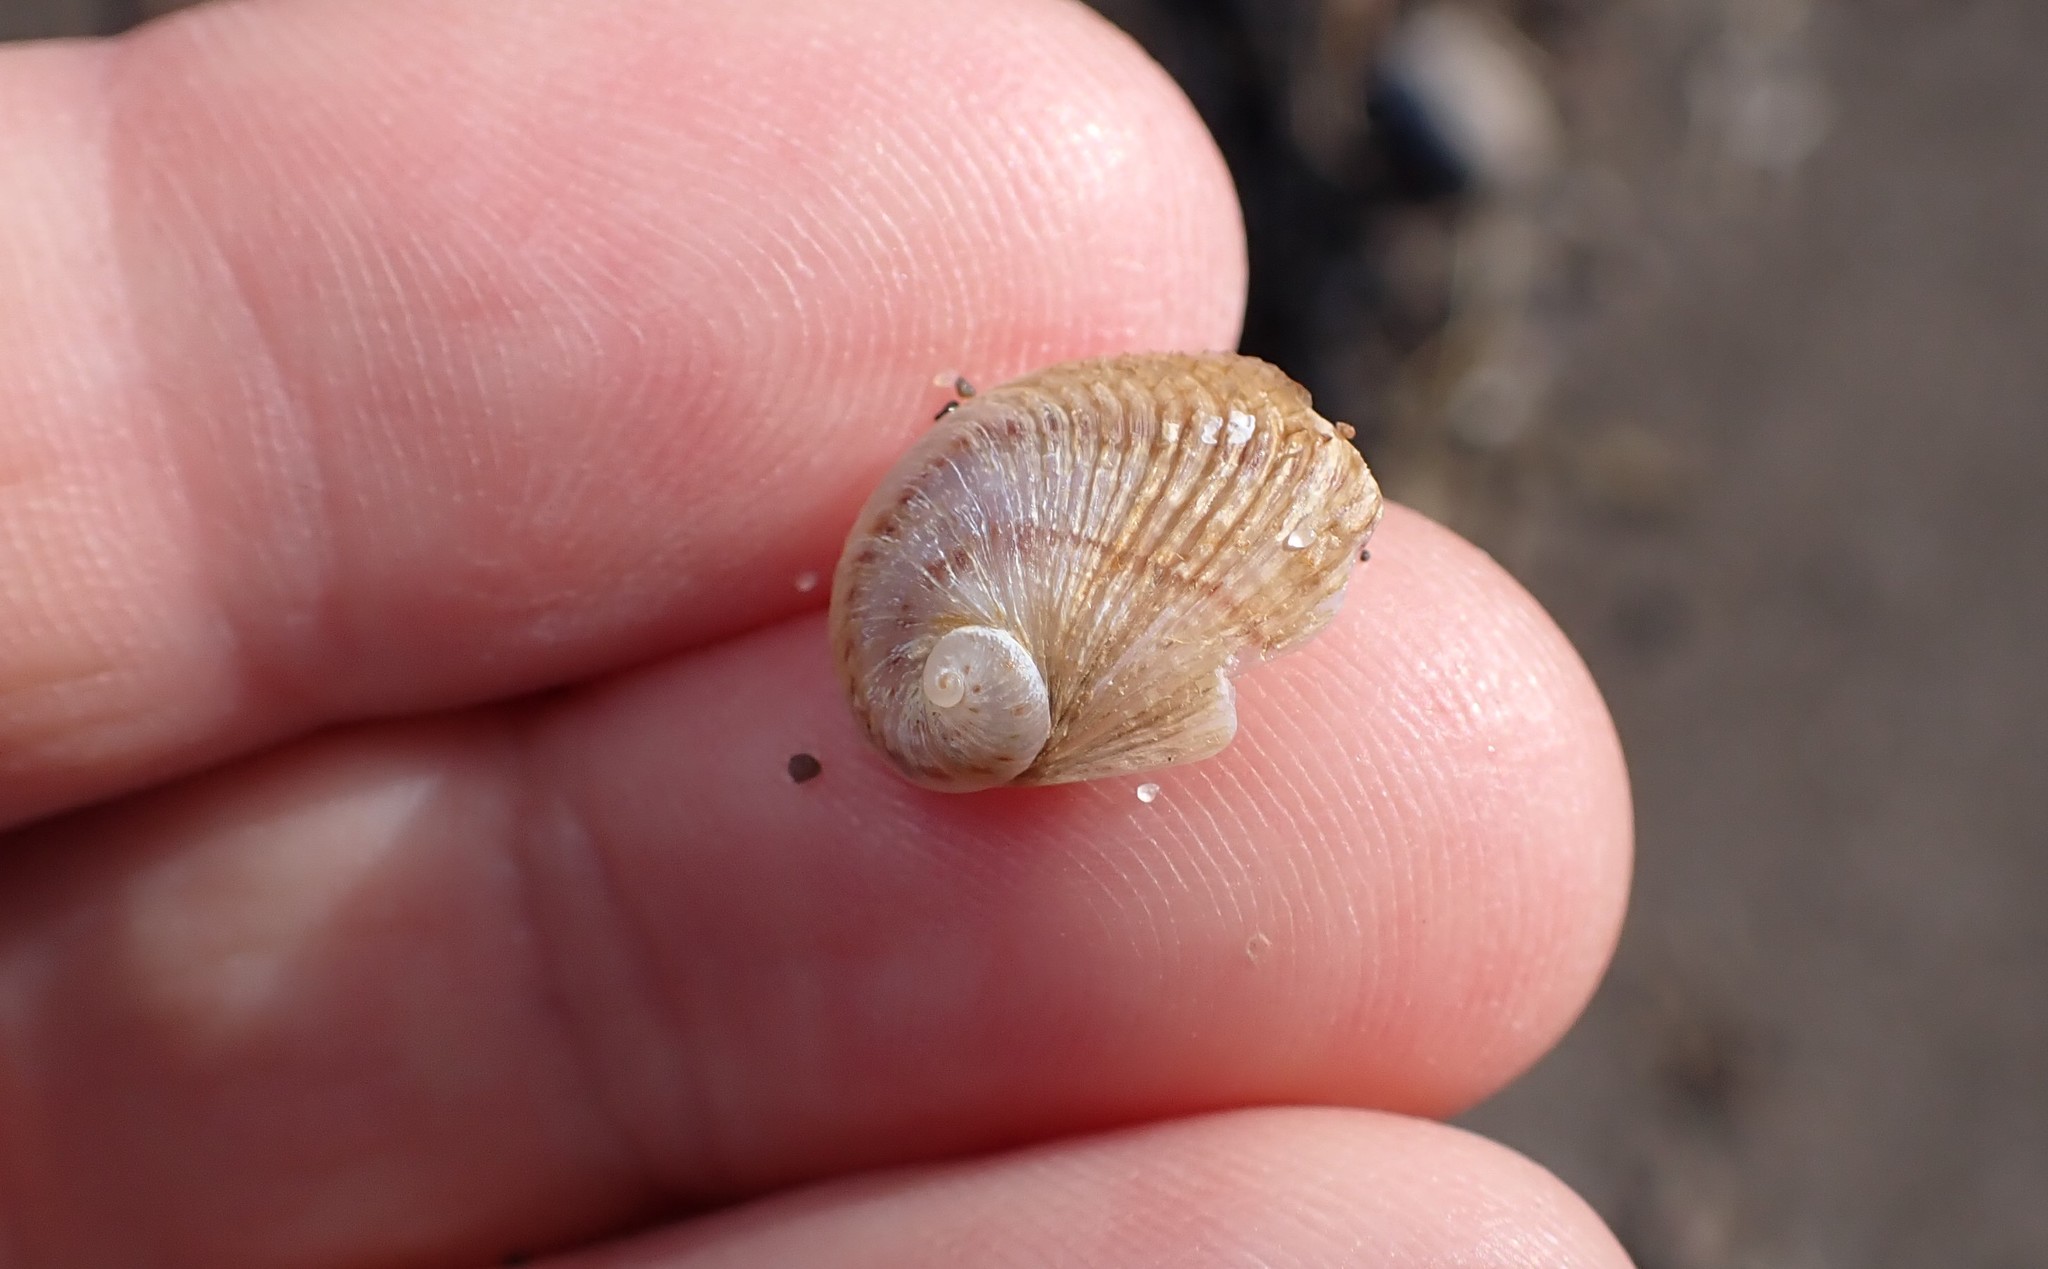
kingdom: Animalia
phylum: Mollusca
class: Gastropoda
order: Littorinimorpha
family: Calyptraeidae
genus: Sigapatella
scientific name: Sigapatella novaezelandiae
